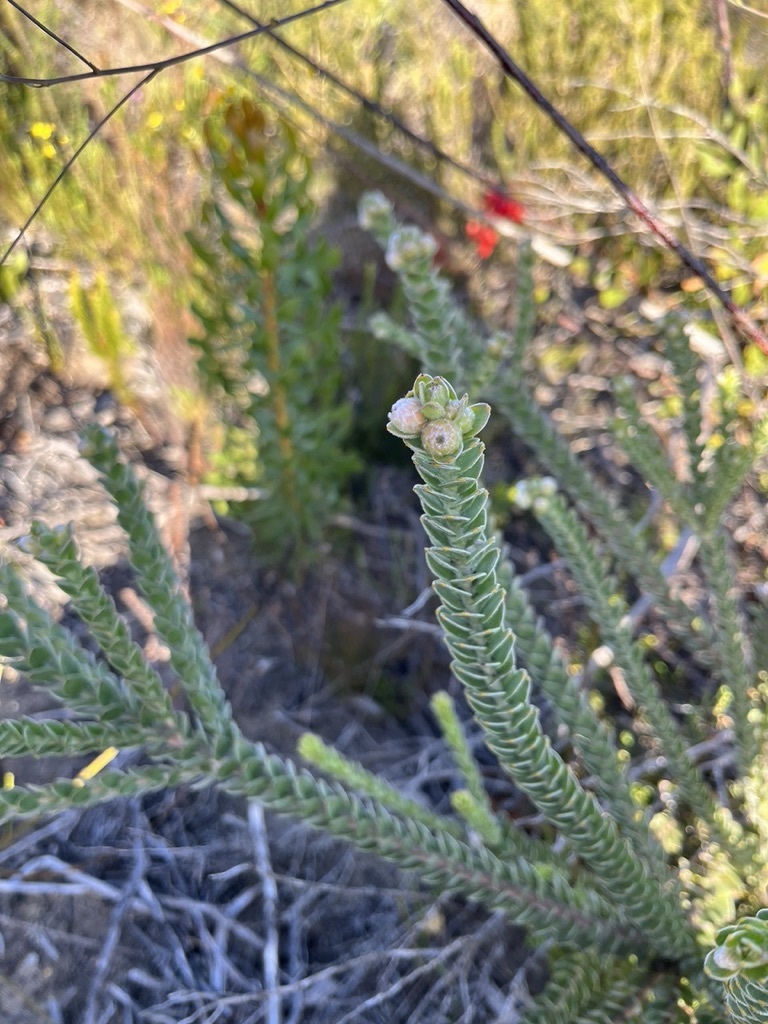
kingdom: Plantae
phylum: Tracheophyta
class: Magnoliopsida
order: Proteales
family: Proteaceae
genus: Leucospermum
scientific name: Leucospermum truncatulum
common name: Oval-leaf pincushion
